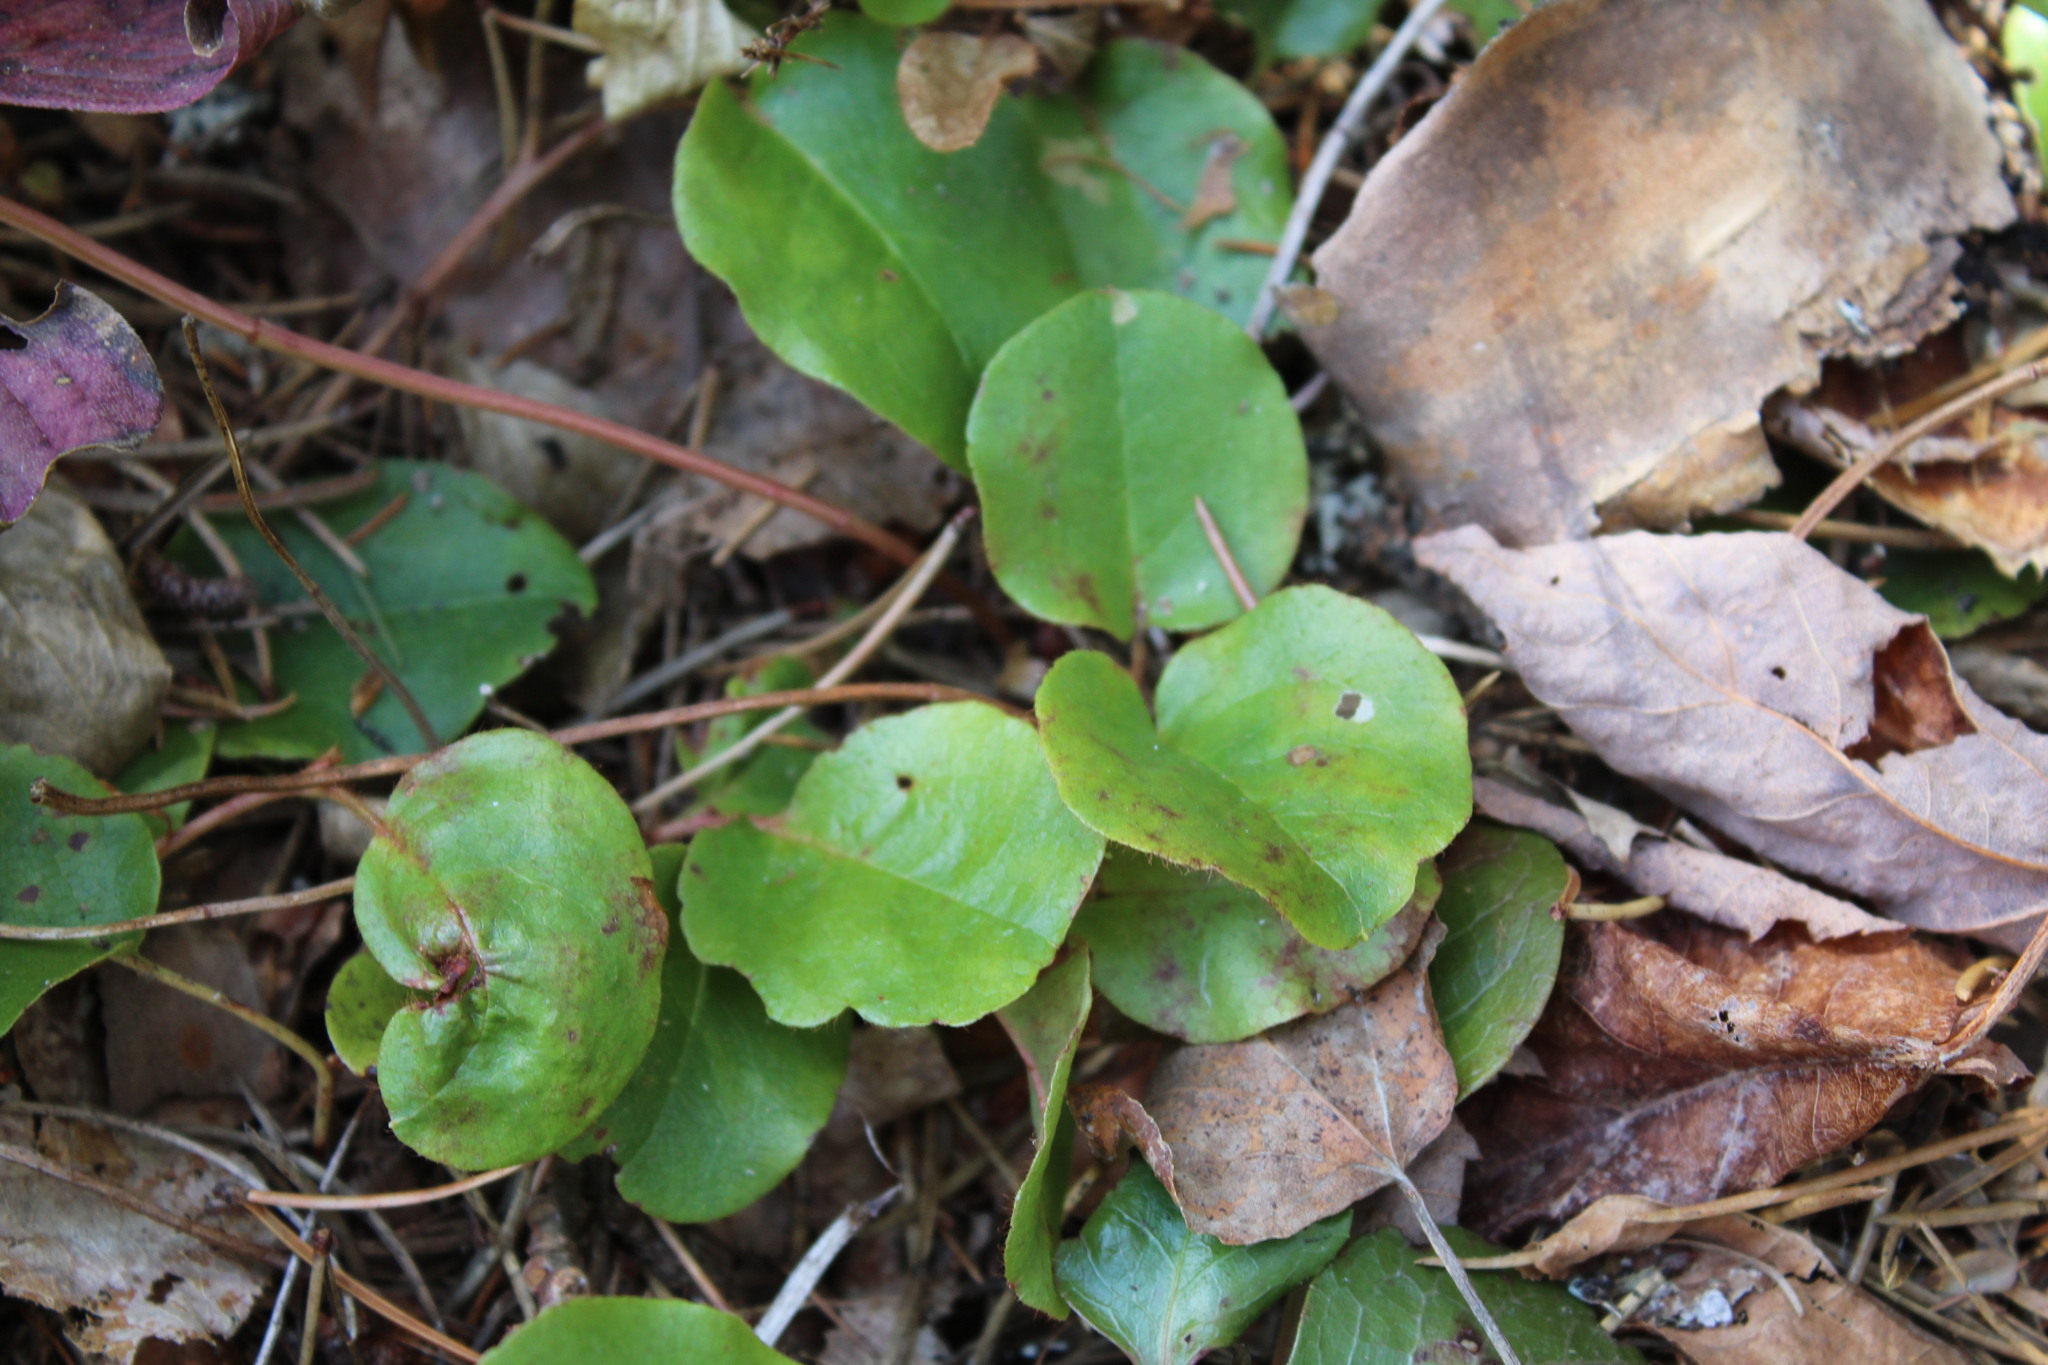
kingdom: Plantae
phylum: Tracheophyta
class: Magnoliopsida
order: Ericales
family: Ericaceae
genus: Epigaea
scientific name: Epigaea repens
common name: Gravelroot
